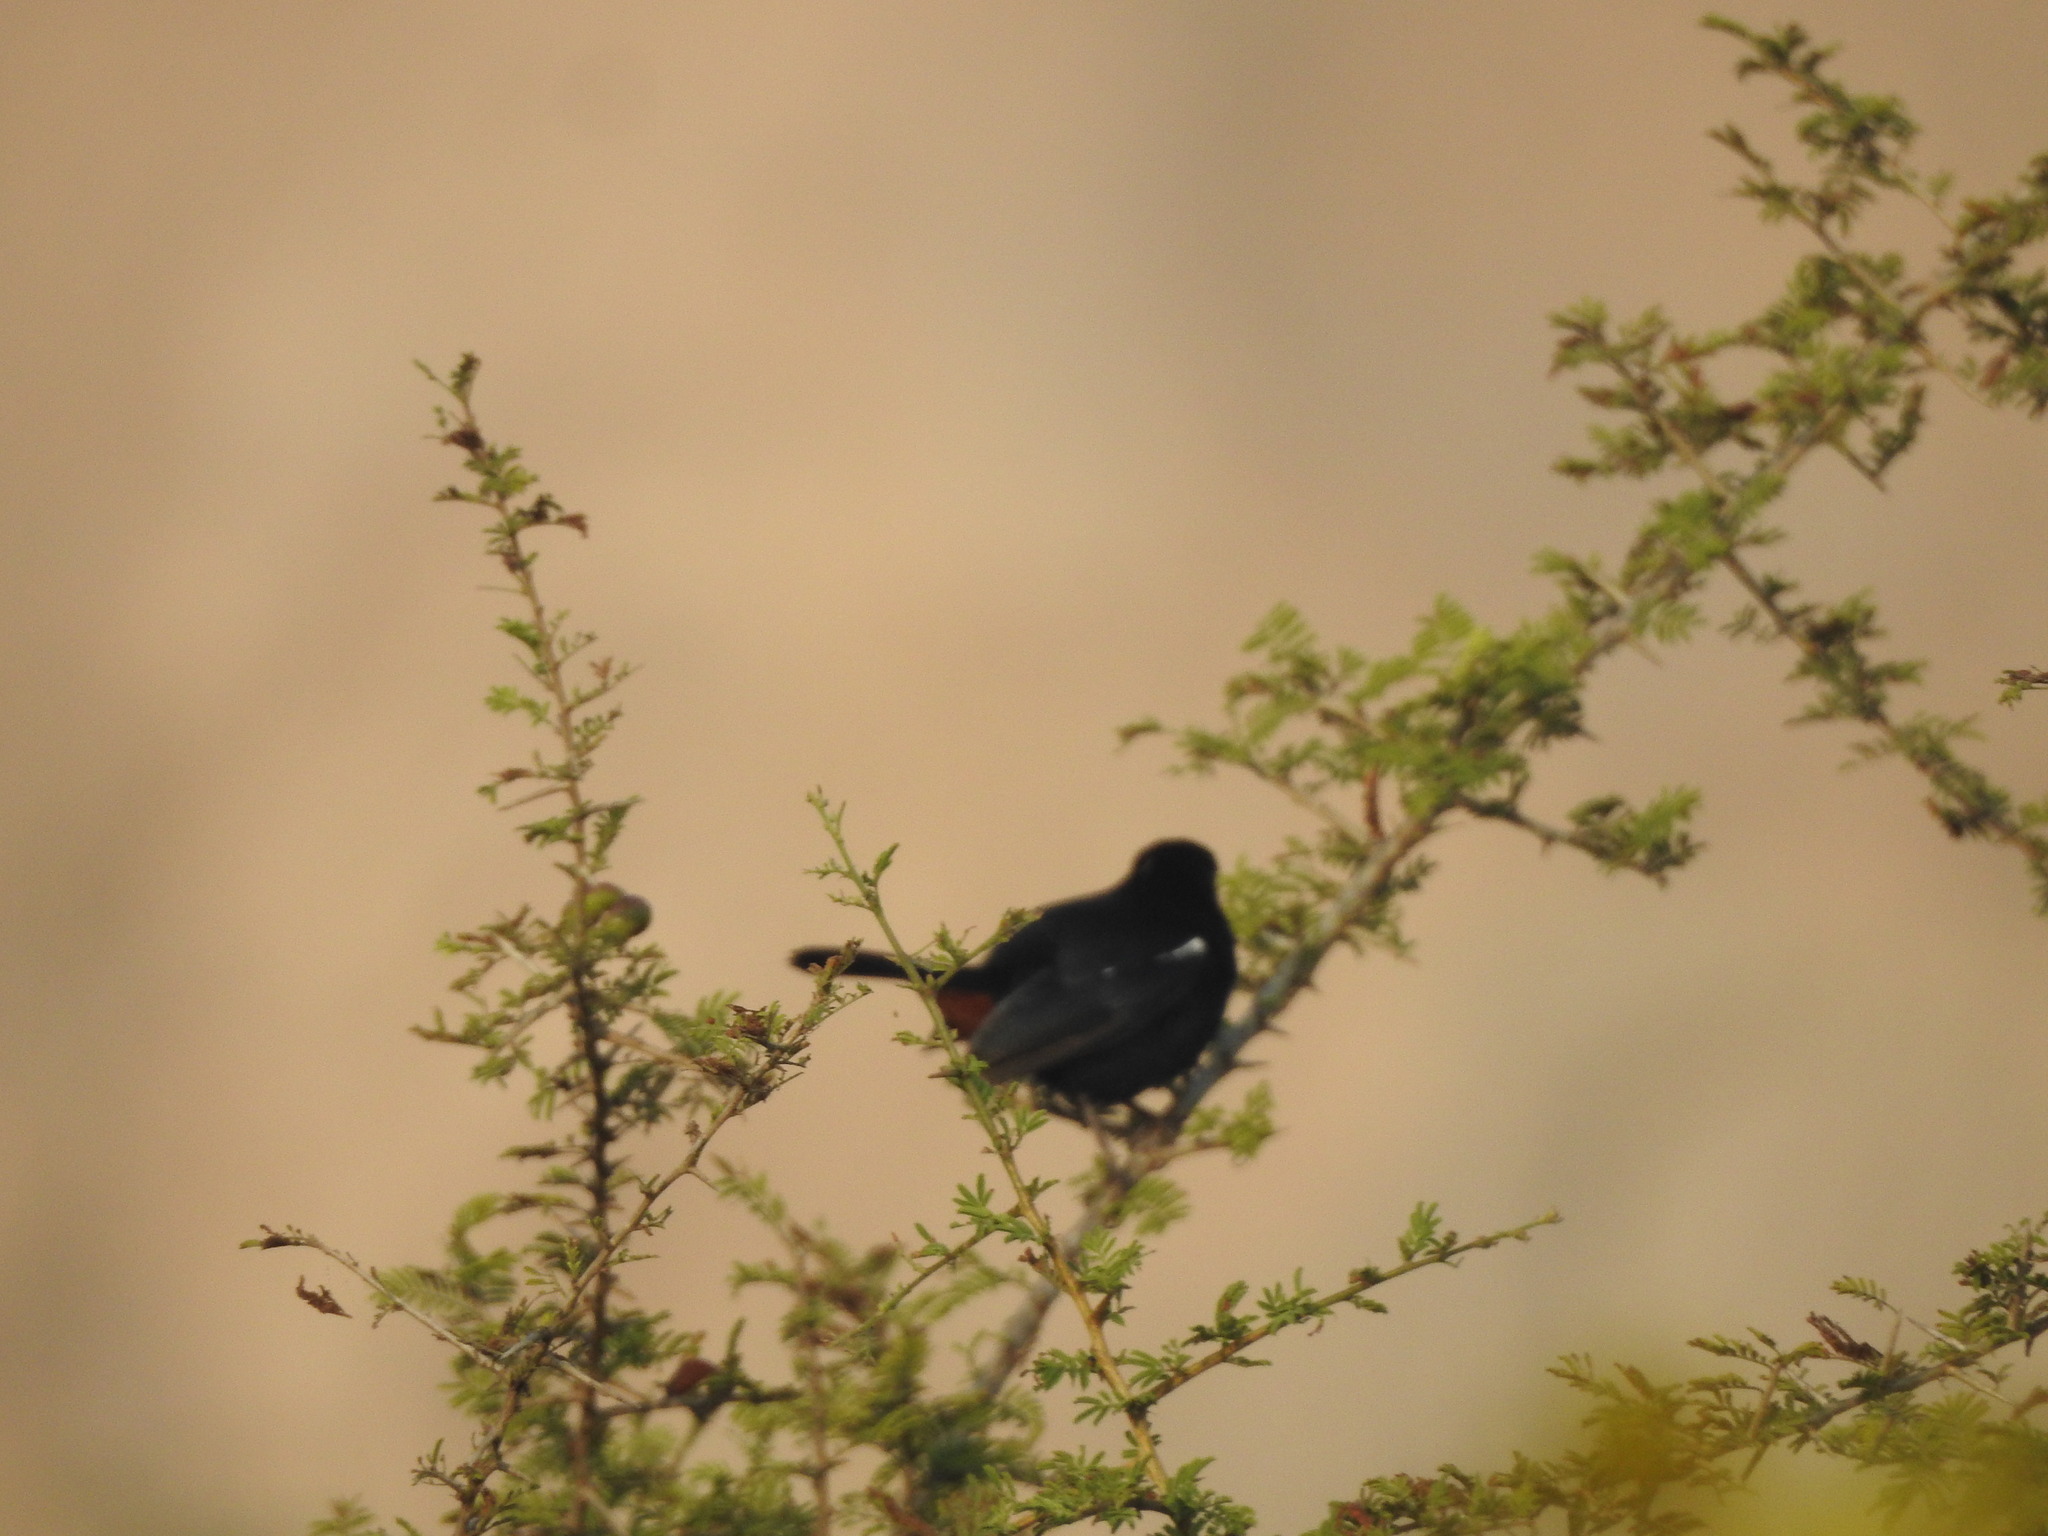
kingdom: Animalia
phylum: Chordata
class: Aves
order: Passeriformes
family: Muscicapidae
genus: Saxicoloides
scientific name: Saxicoloides fulicatus
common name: Indian robin
